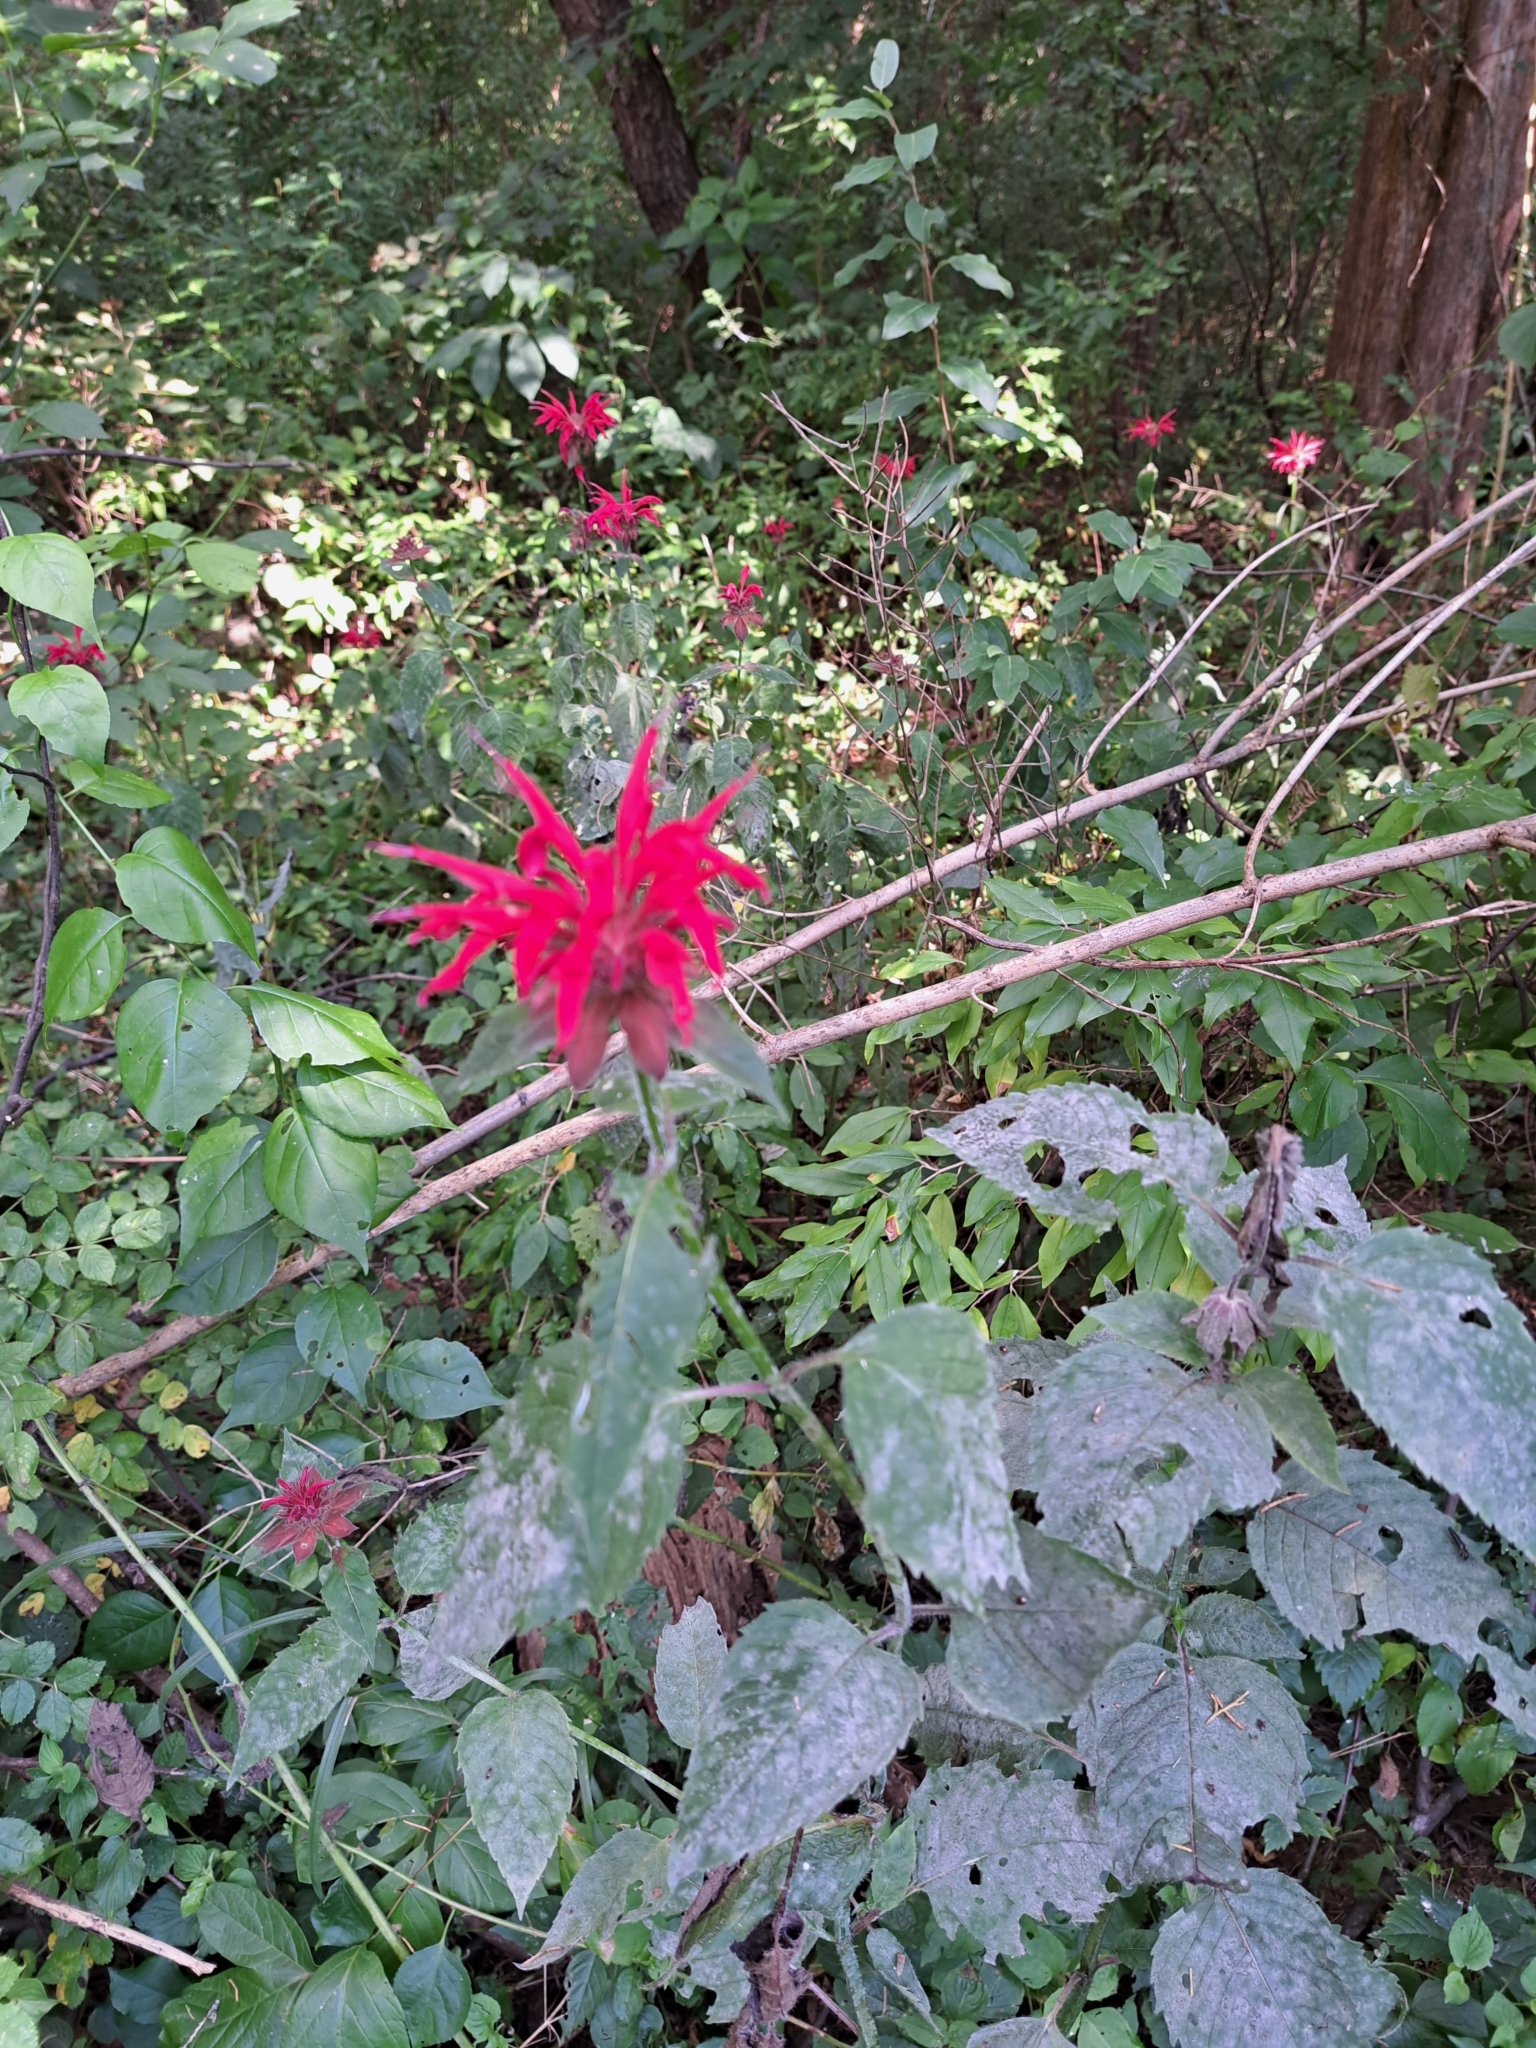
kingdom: Plantae
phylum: Tracheophyta
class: Magnoliopsida
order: Lamiales
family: Lamiaceae
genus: Monarda
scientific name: Monarda didyma
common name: Beebalm
